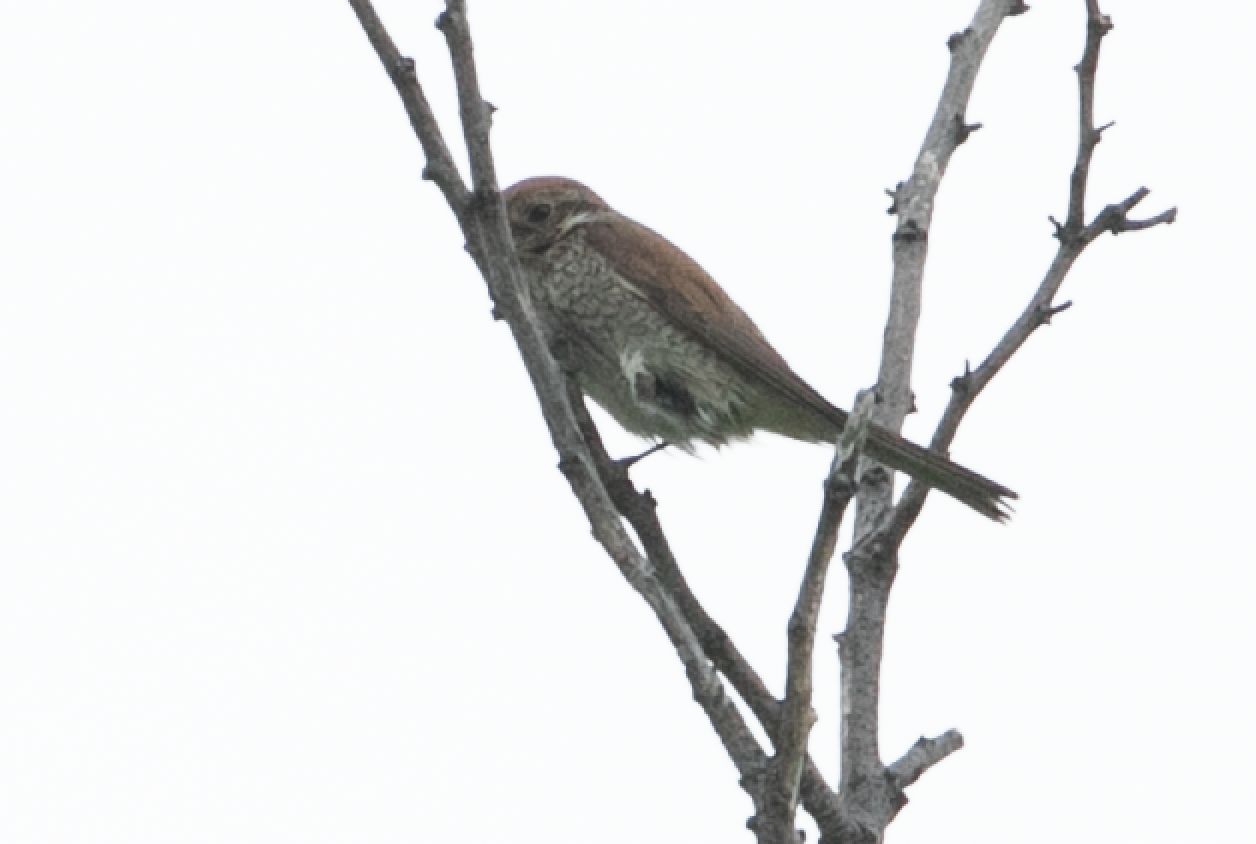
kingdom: Animalia
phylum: Chordata
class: Aves
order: Passeriformes
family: Laniidae
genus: Lanius
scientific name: Lanius collurio
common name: Red-backed shrike
